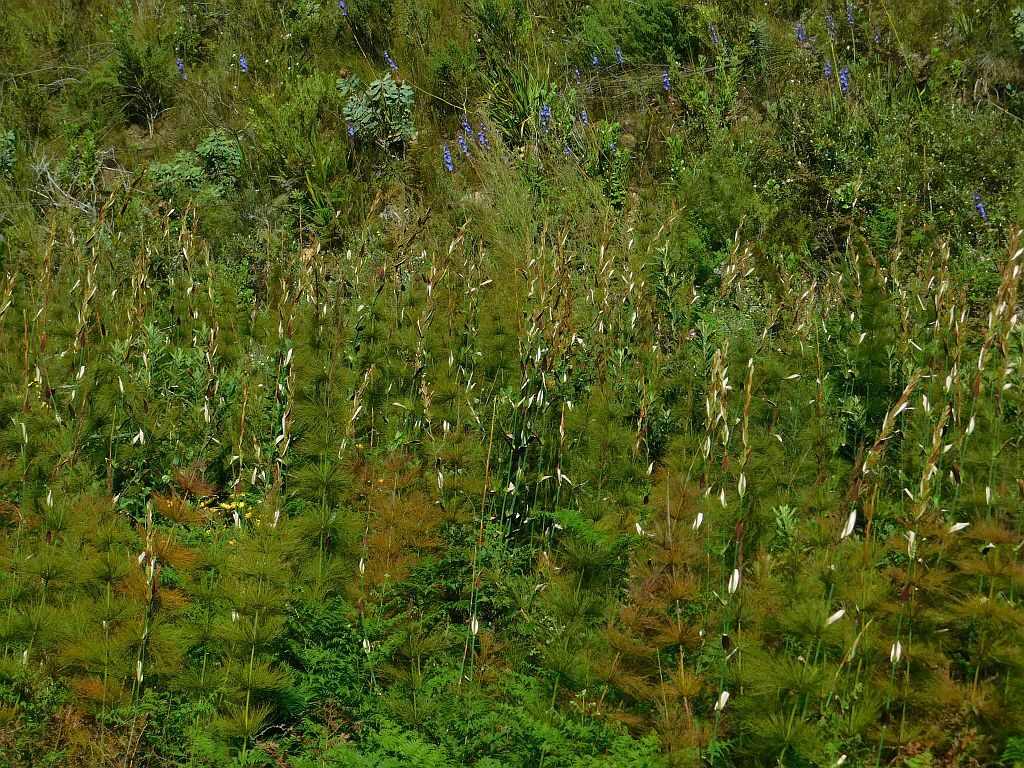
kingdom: Plantae
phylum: Tracheophyta
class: Liliopsida
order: Poales
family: Restionaceae
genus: Elegia
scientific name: Elegia capensis
